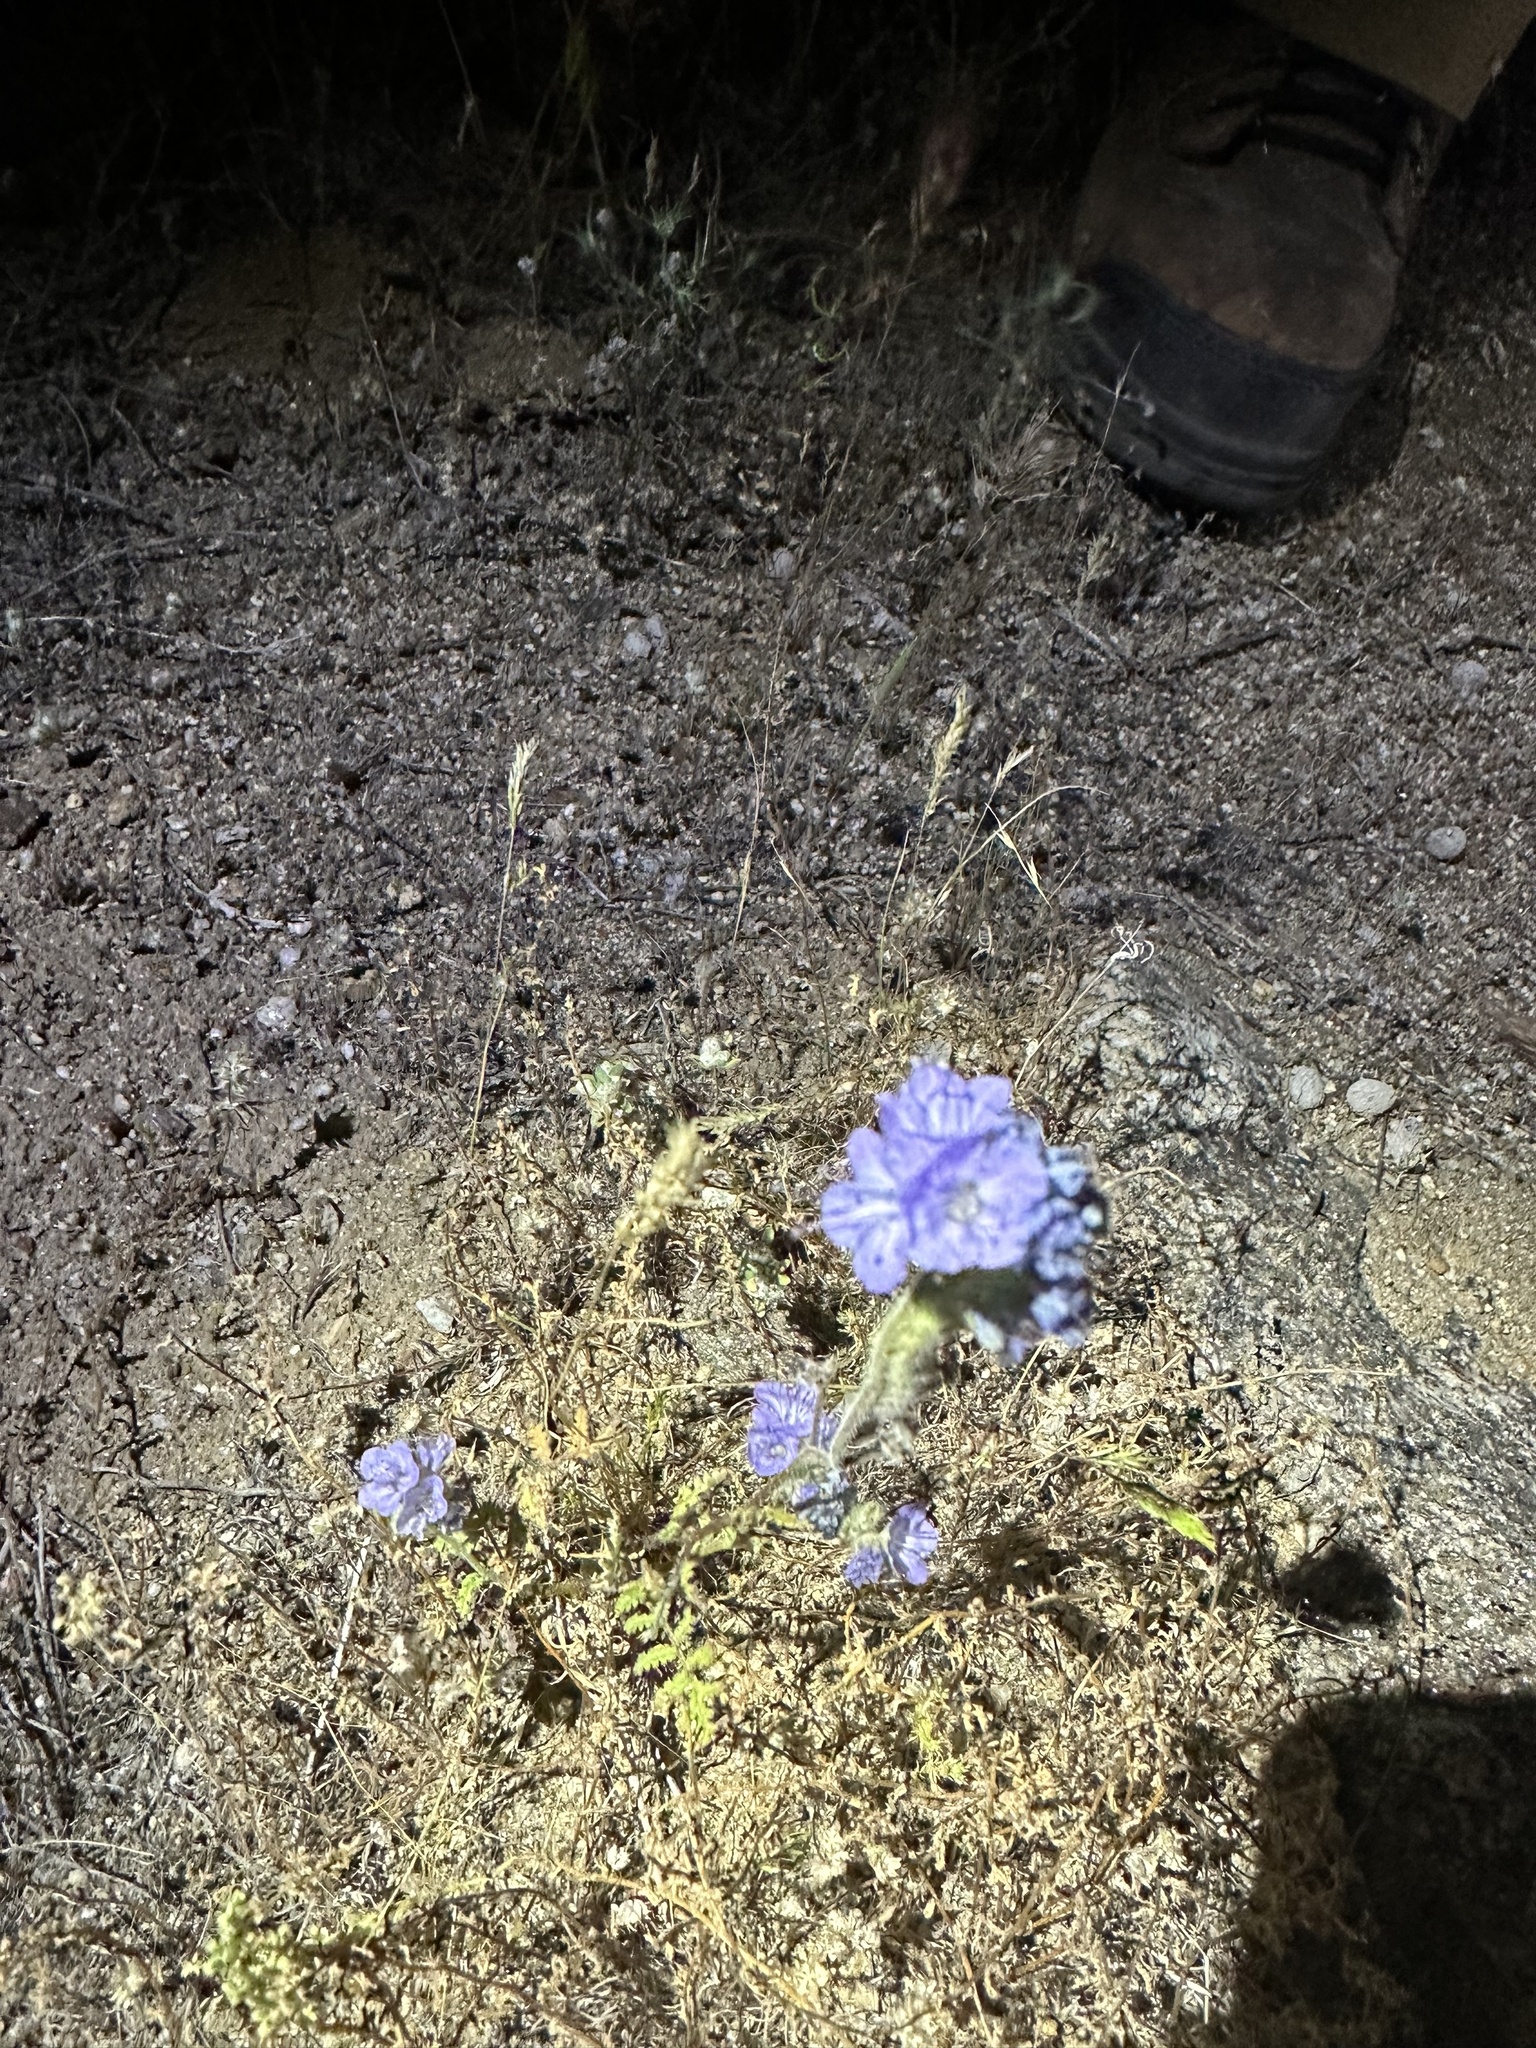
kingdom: Plantae
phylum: Tracheophyta
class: Magnoliopsida
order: Boraginales
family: Hydrophyllaceae
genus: Phacelia
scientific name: Phacelia distans
